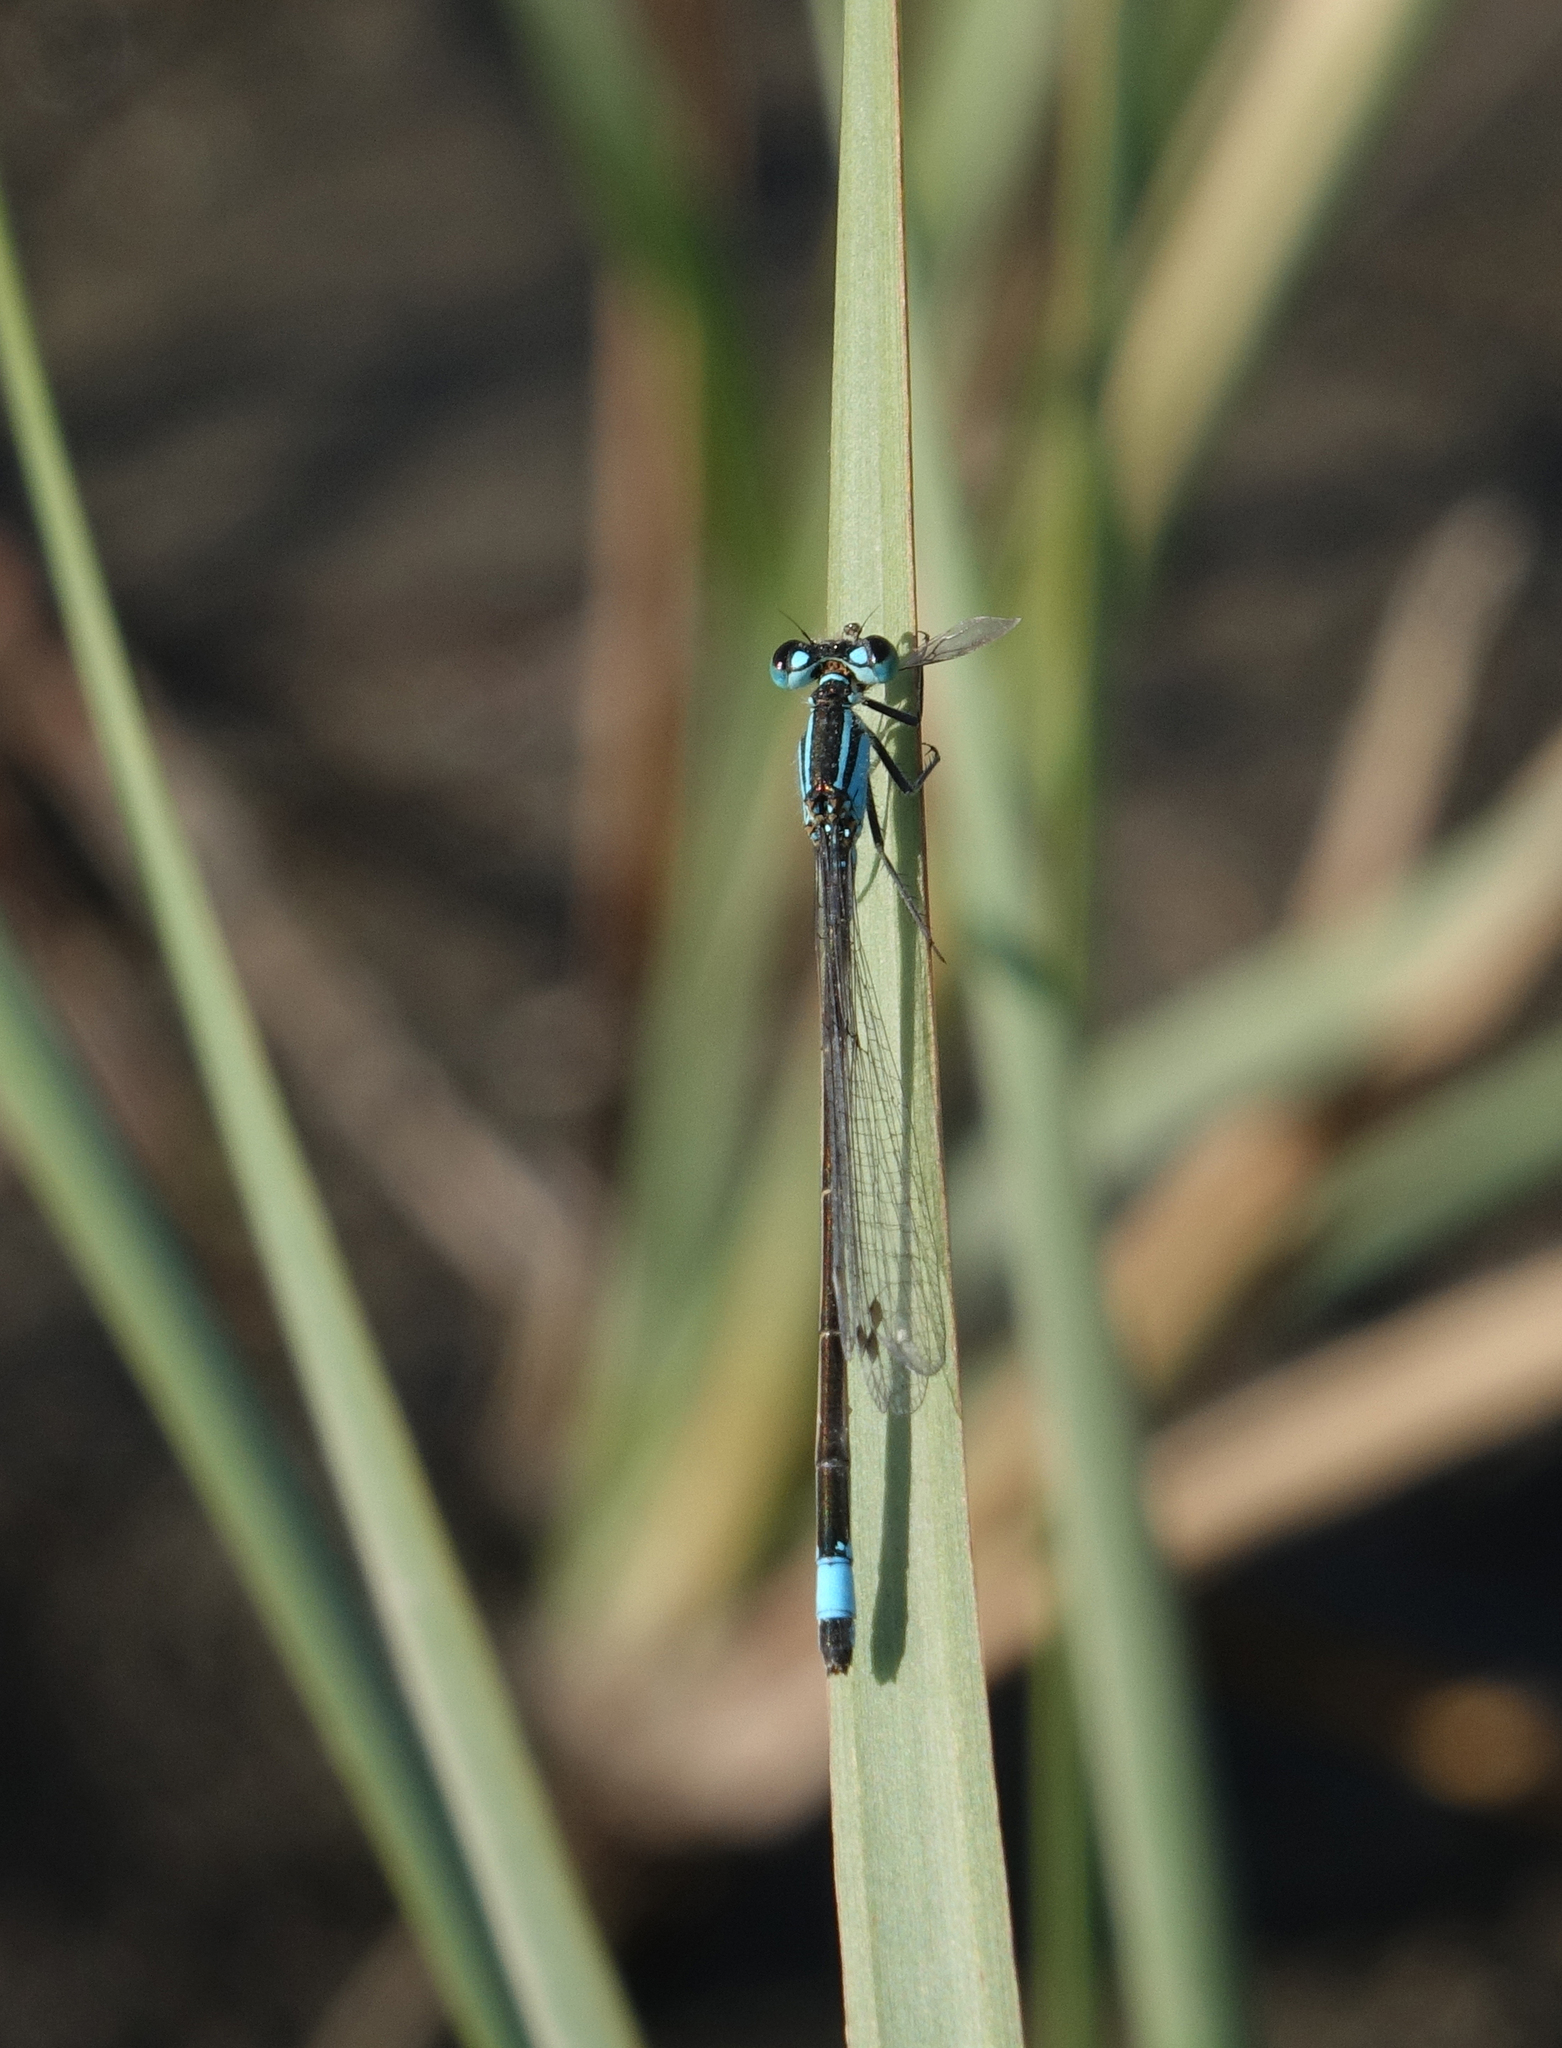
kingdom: Animalia
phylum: Arthropoda
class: Insecta
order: Odonata
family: Coenagrionidae
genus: Ischnura
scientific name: Ischnura elegans
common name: Blue-tailed damselfly
